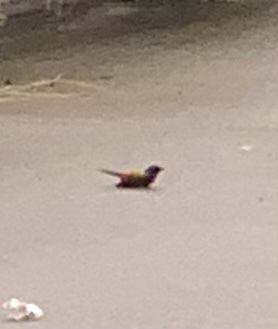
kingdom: Animalia
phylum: Chordata
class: Aves
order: Passeriformes
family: Cardinalidae
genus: Passerina
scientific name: Passerina ciris
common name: Painted bunting
